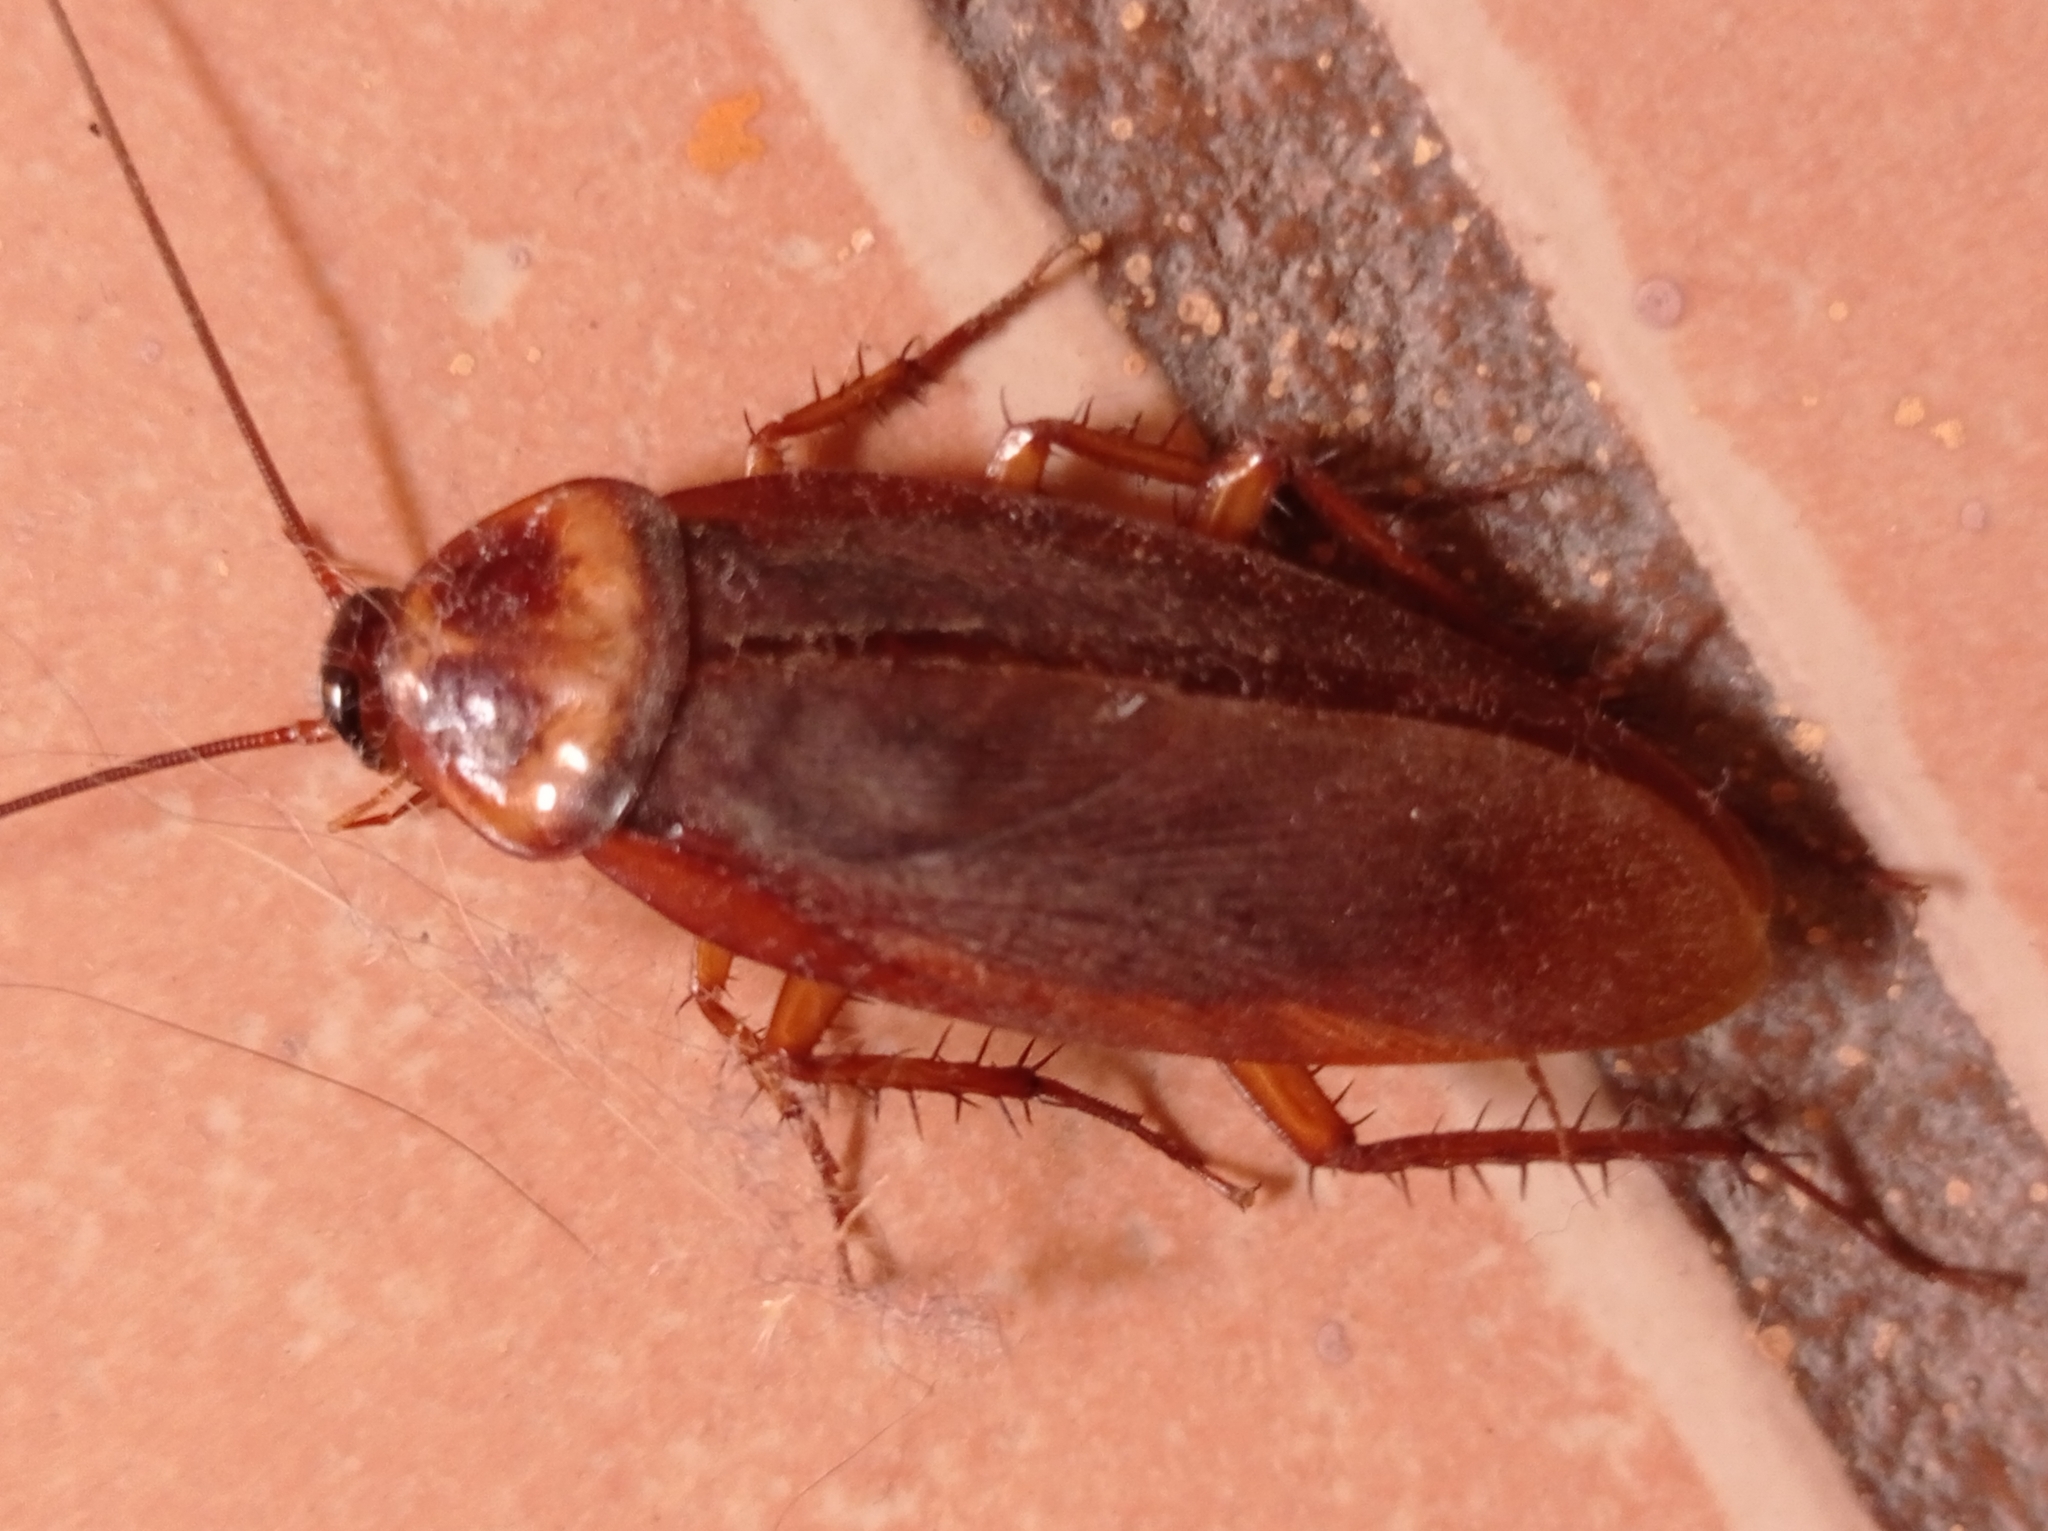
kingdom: Animalia
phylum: Arthropoda
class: Insecta
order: Blattodea
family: Blattidae
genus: Periplaneta
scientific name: Periplaneta americana
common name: American cockroach
